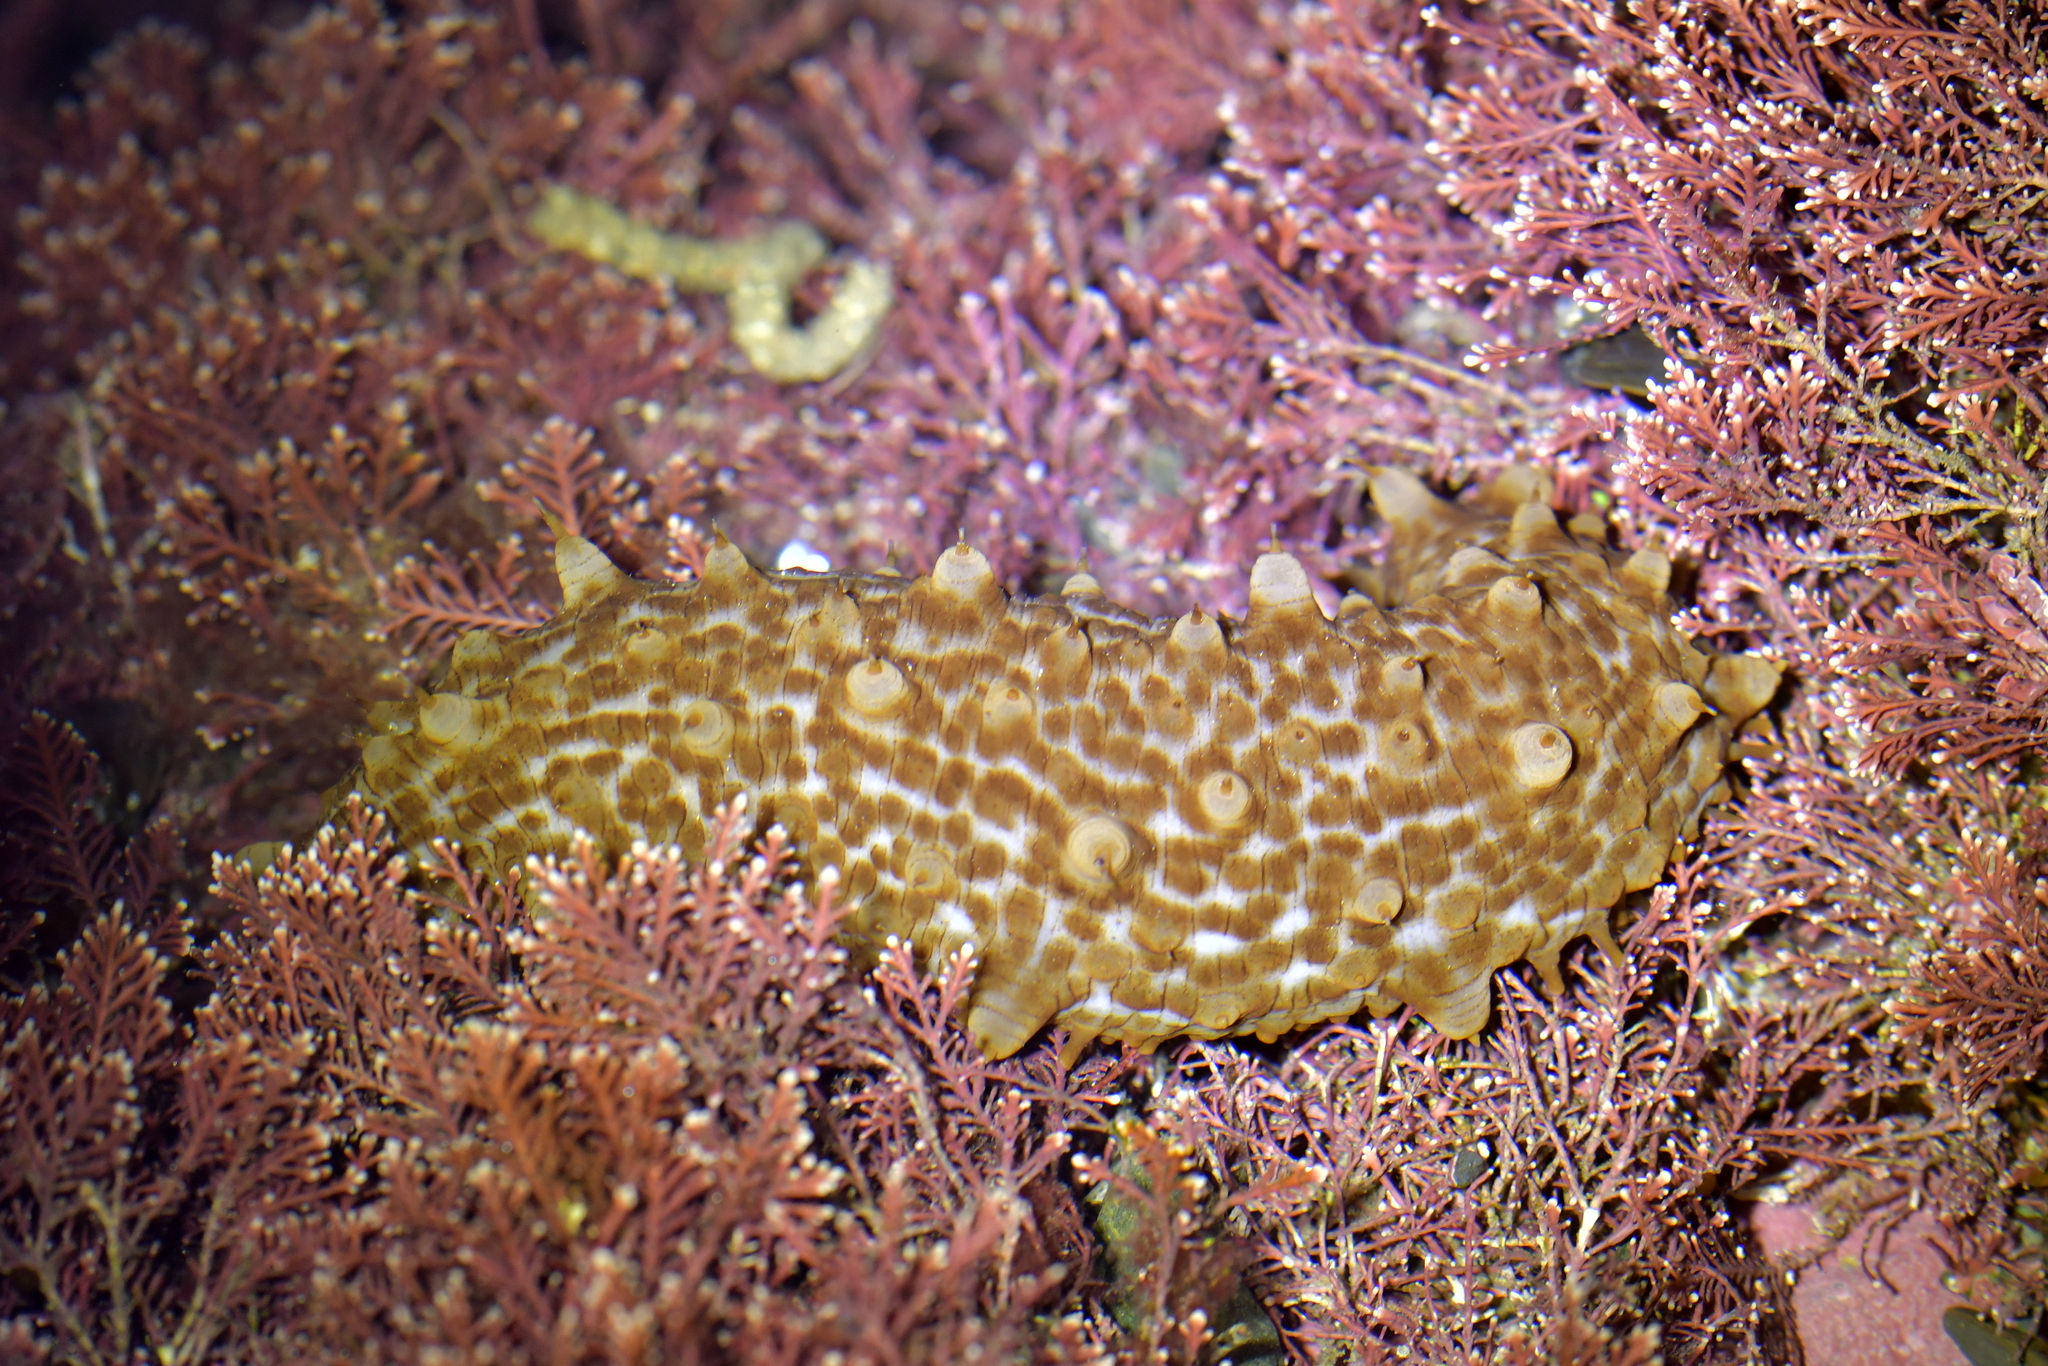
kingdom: Animalia
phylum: Echinodermata
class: Holothuroidea
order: Synallactida
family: Stichopodidae
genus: Australostichopus
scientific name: Australostichopus mollis
